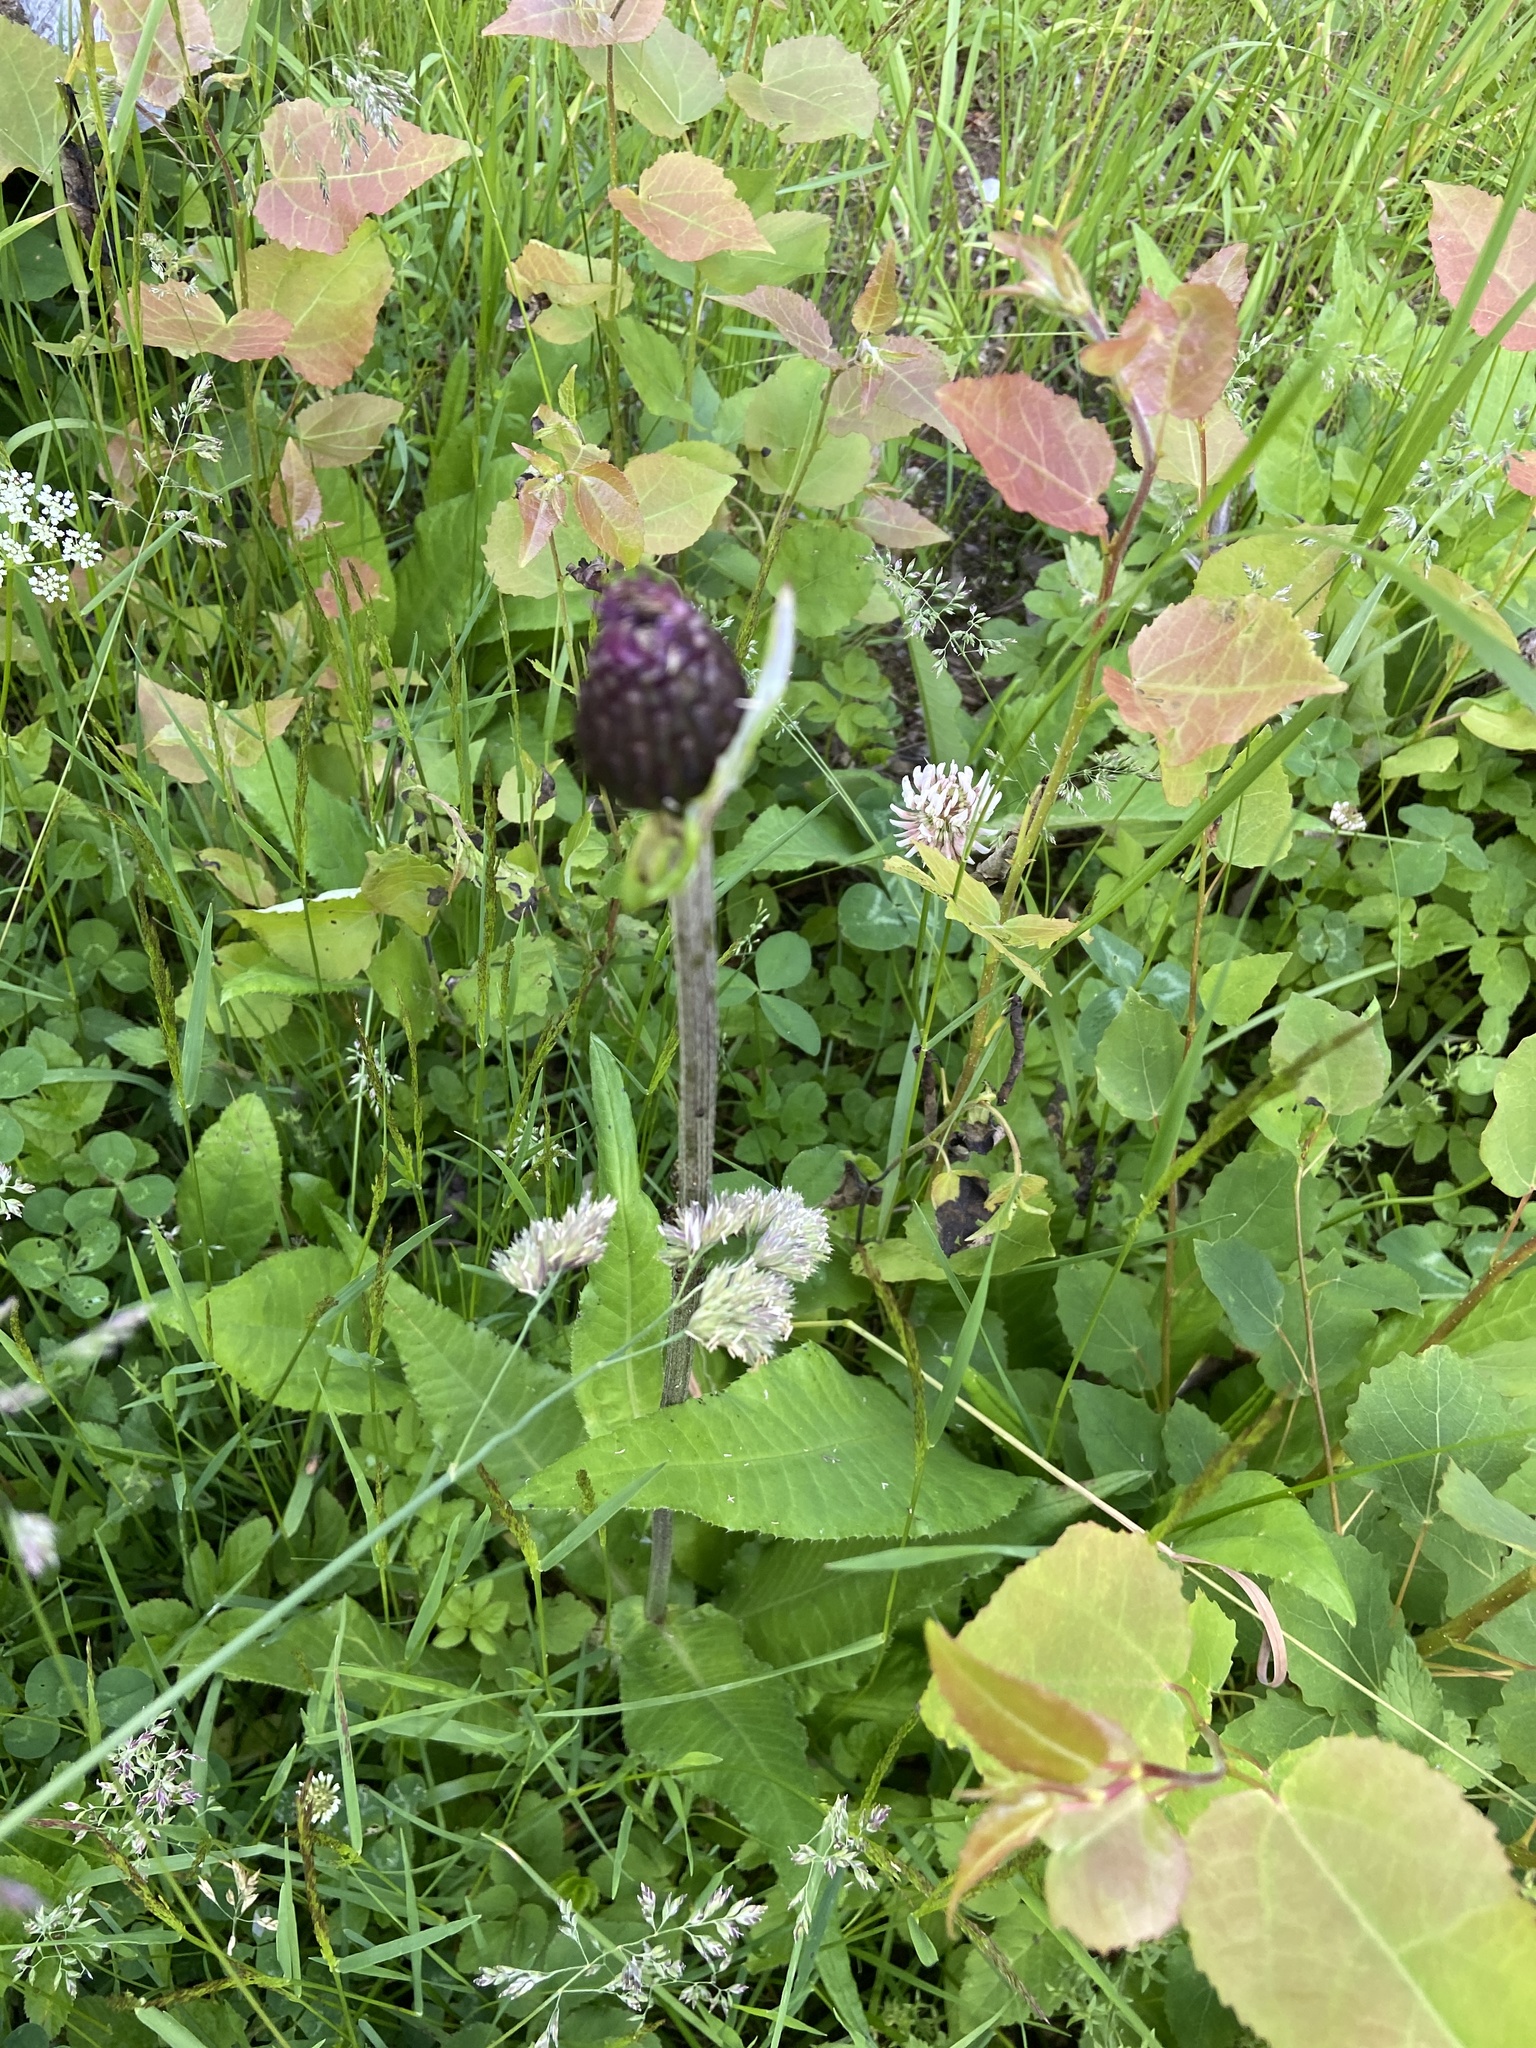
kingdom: Plantae
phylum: Tracheophyta
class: Magnoliopsida
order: Asterales
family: Asteraceae
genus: Cirsium
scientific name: Cirsium heterophyllum
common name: Melancholy thistle
